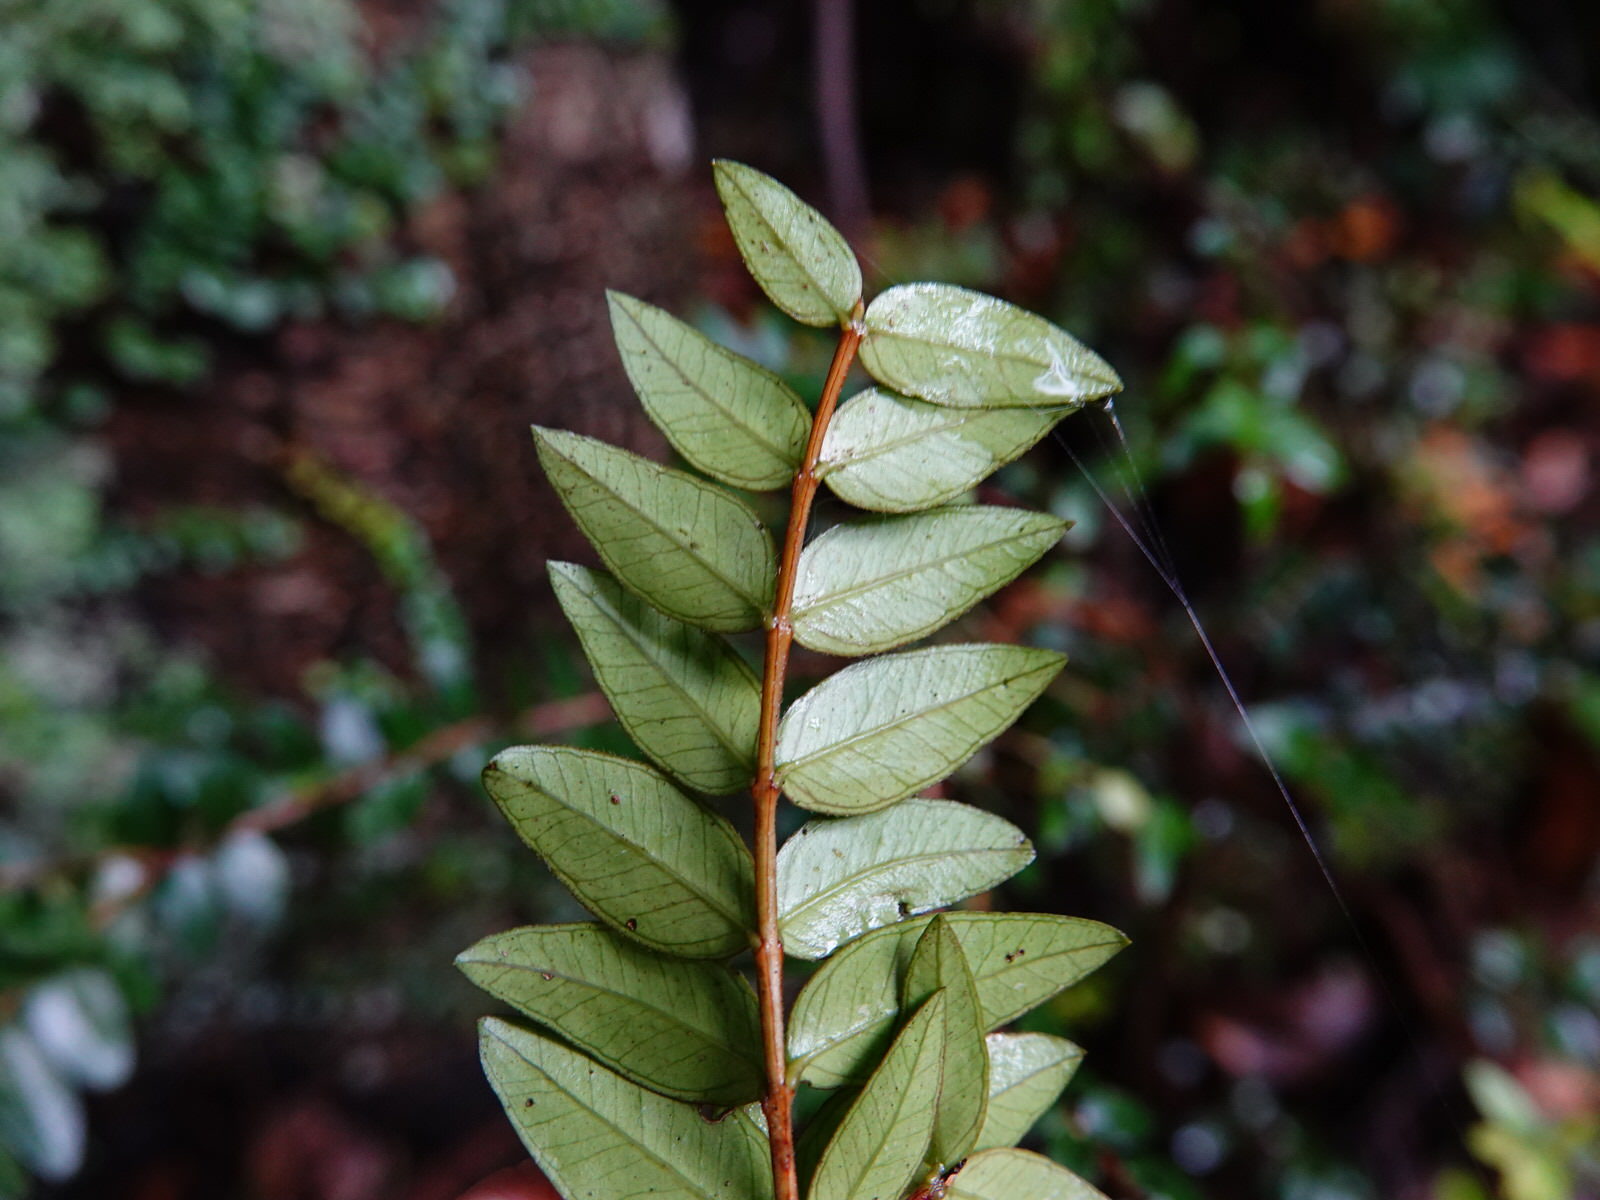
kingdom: Plantae
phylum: Tracheophyta
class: Magnoliopsida
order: Myrtales
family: Myrtaceae
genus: Metrosideros
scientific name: Metrosideros diffusa
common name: Small ratavine
